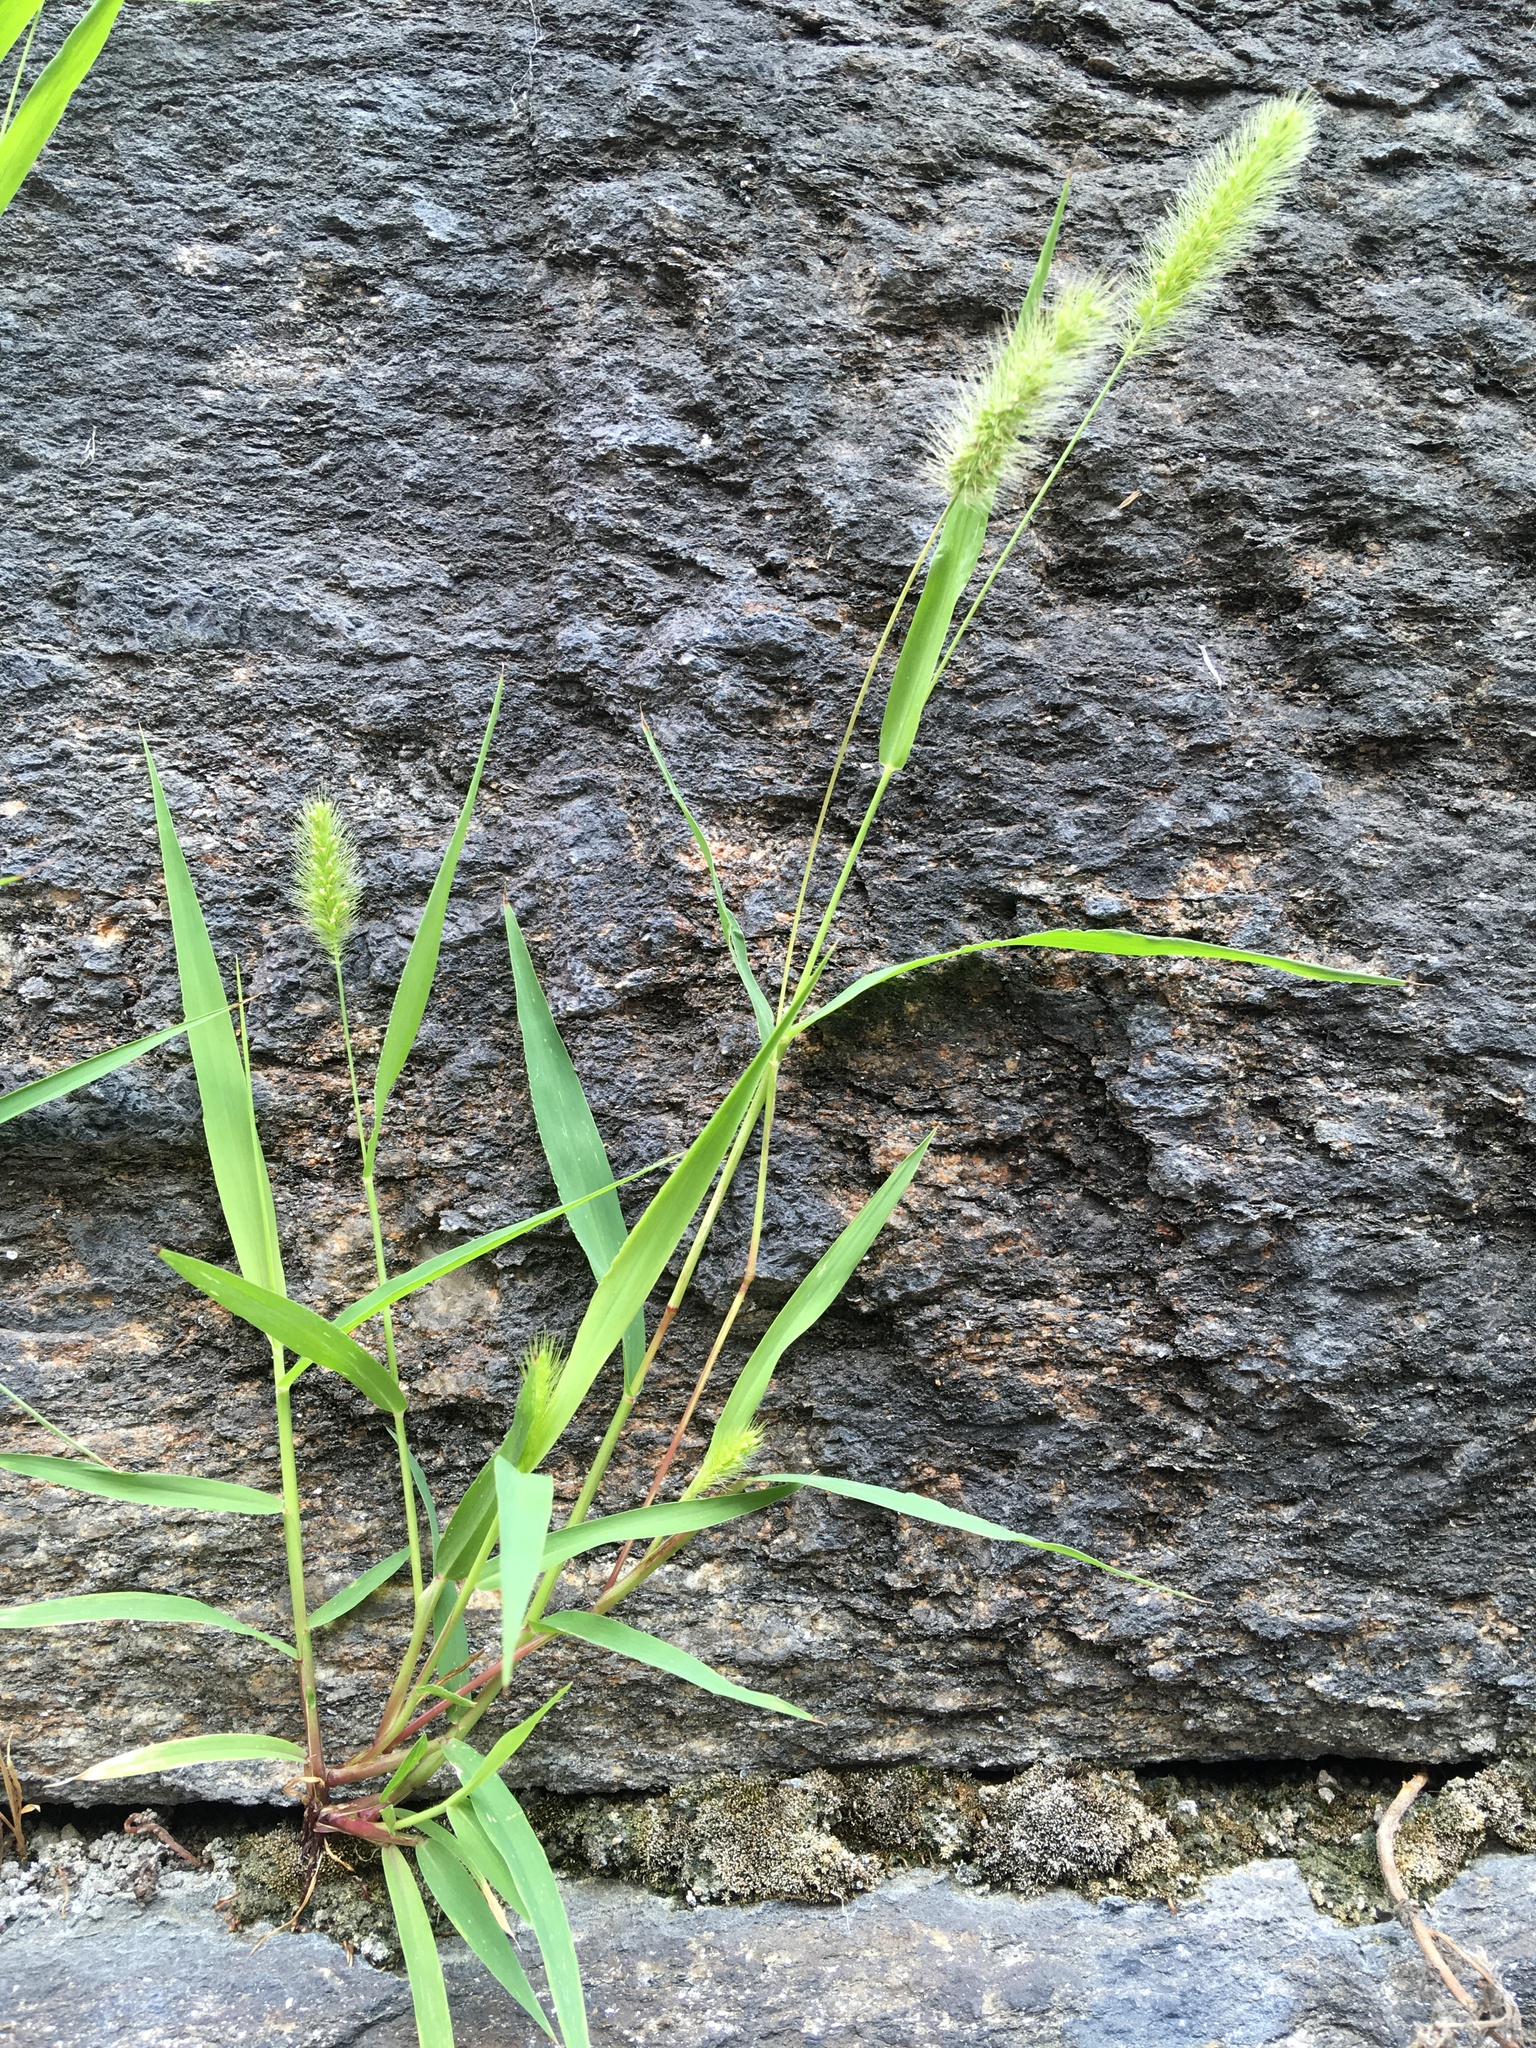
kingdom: Plantae
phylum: Tracheophyta
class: Liliopsida
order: Poales
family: Poaceae
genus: Setaria
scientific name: Setaria viridis
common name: Green bristlegrass
